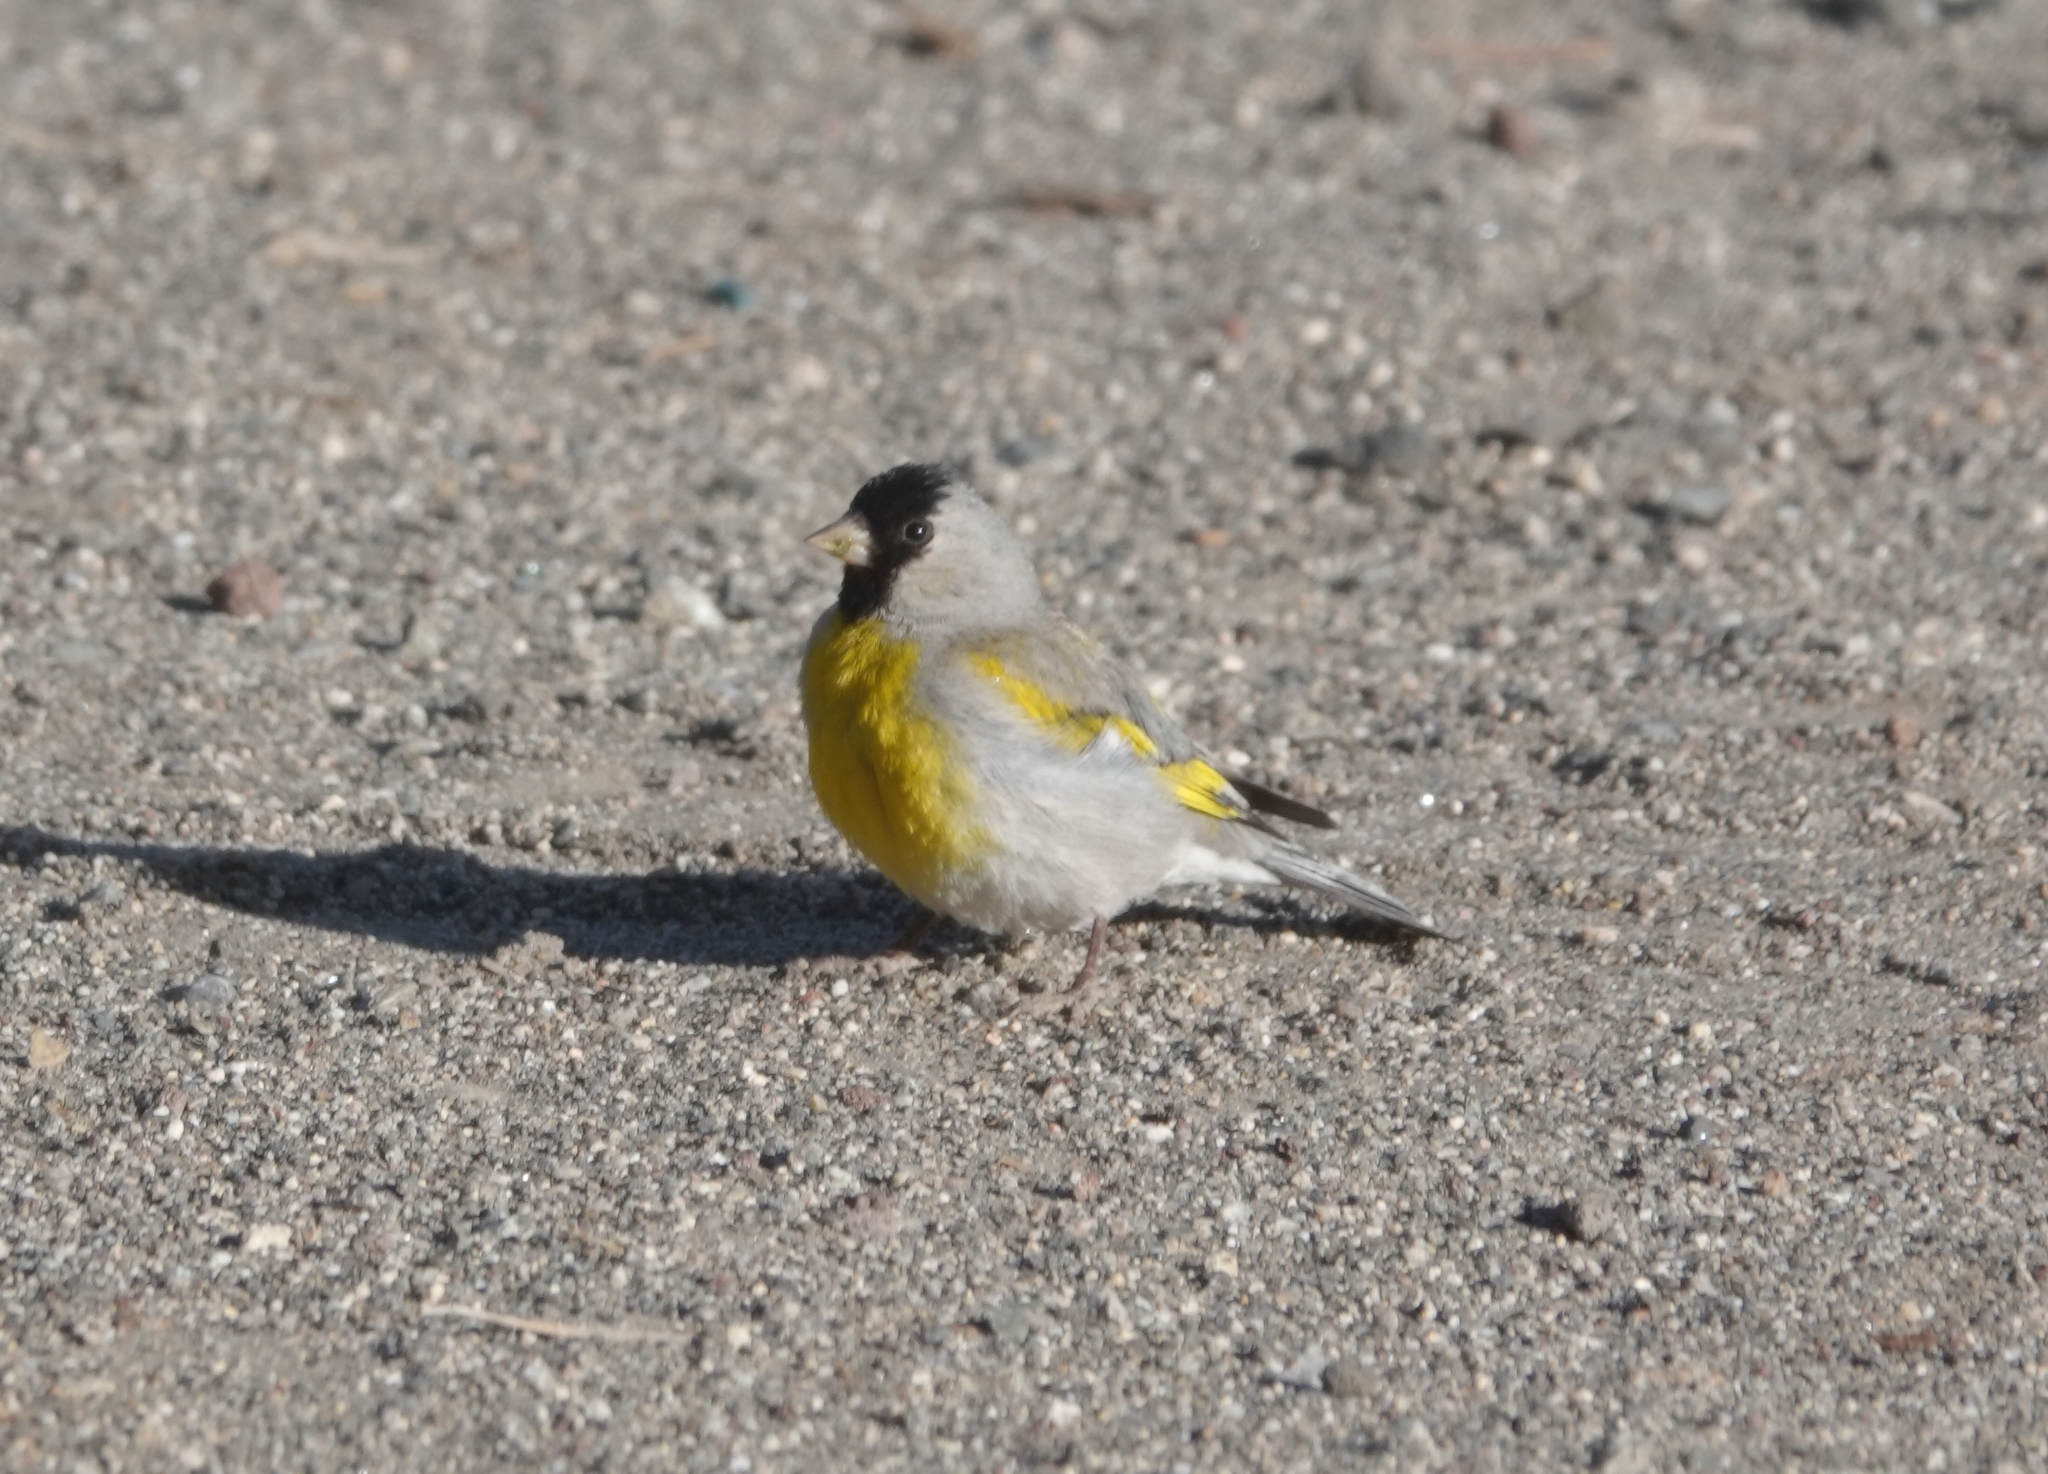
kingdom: Animalia
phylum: Chordata
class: Aves
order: Passeriformes
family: Fringillidae
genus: Spinus
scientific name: Spinus lawrencei
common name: Lawrence's goldfinch
